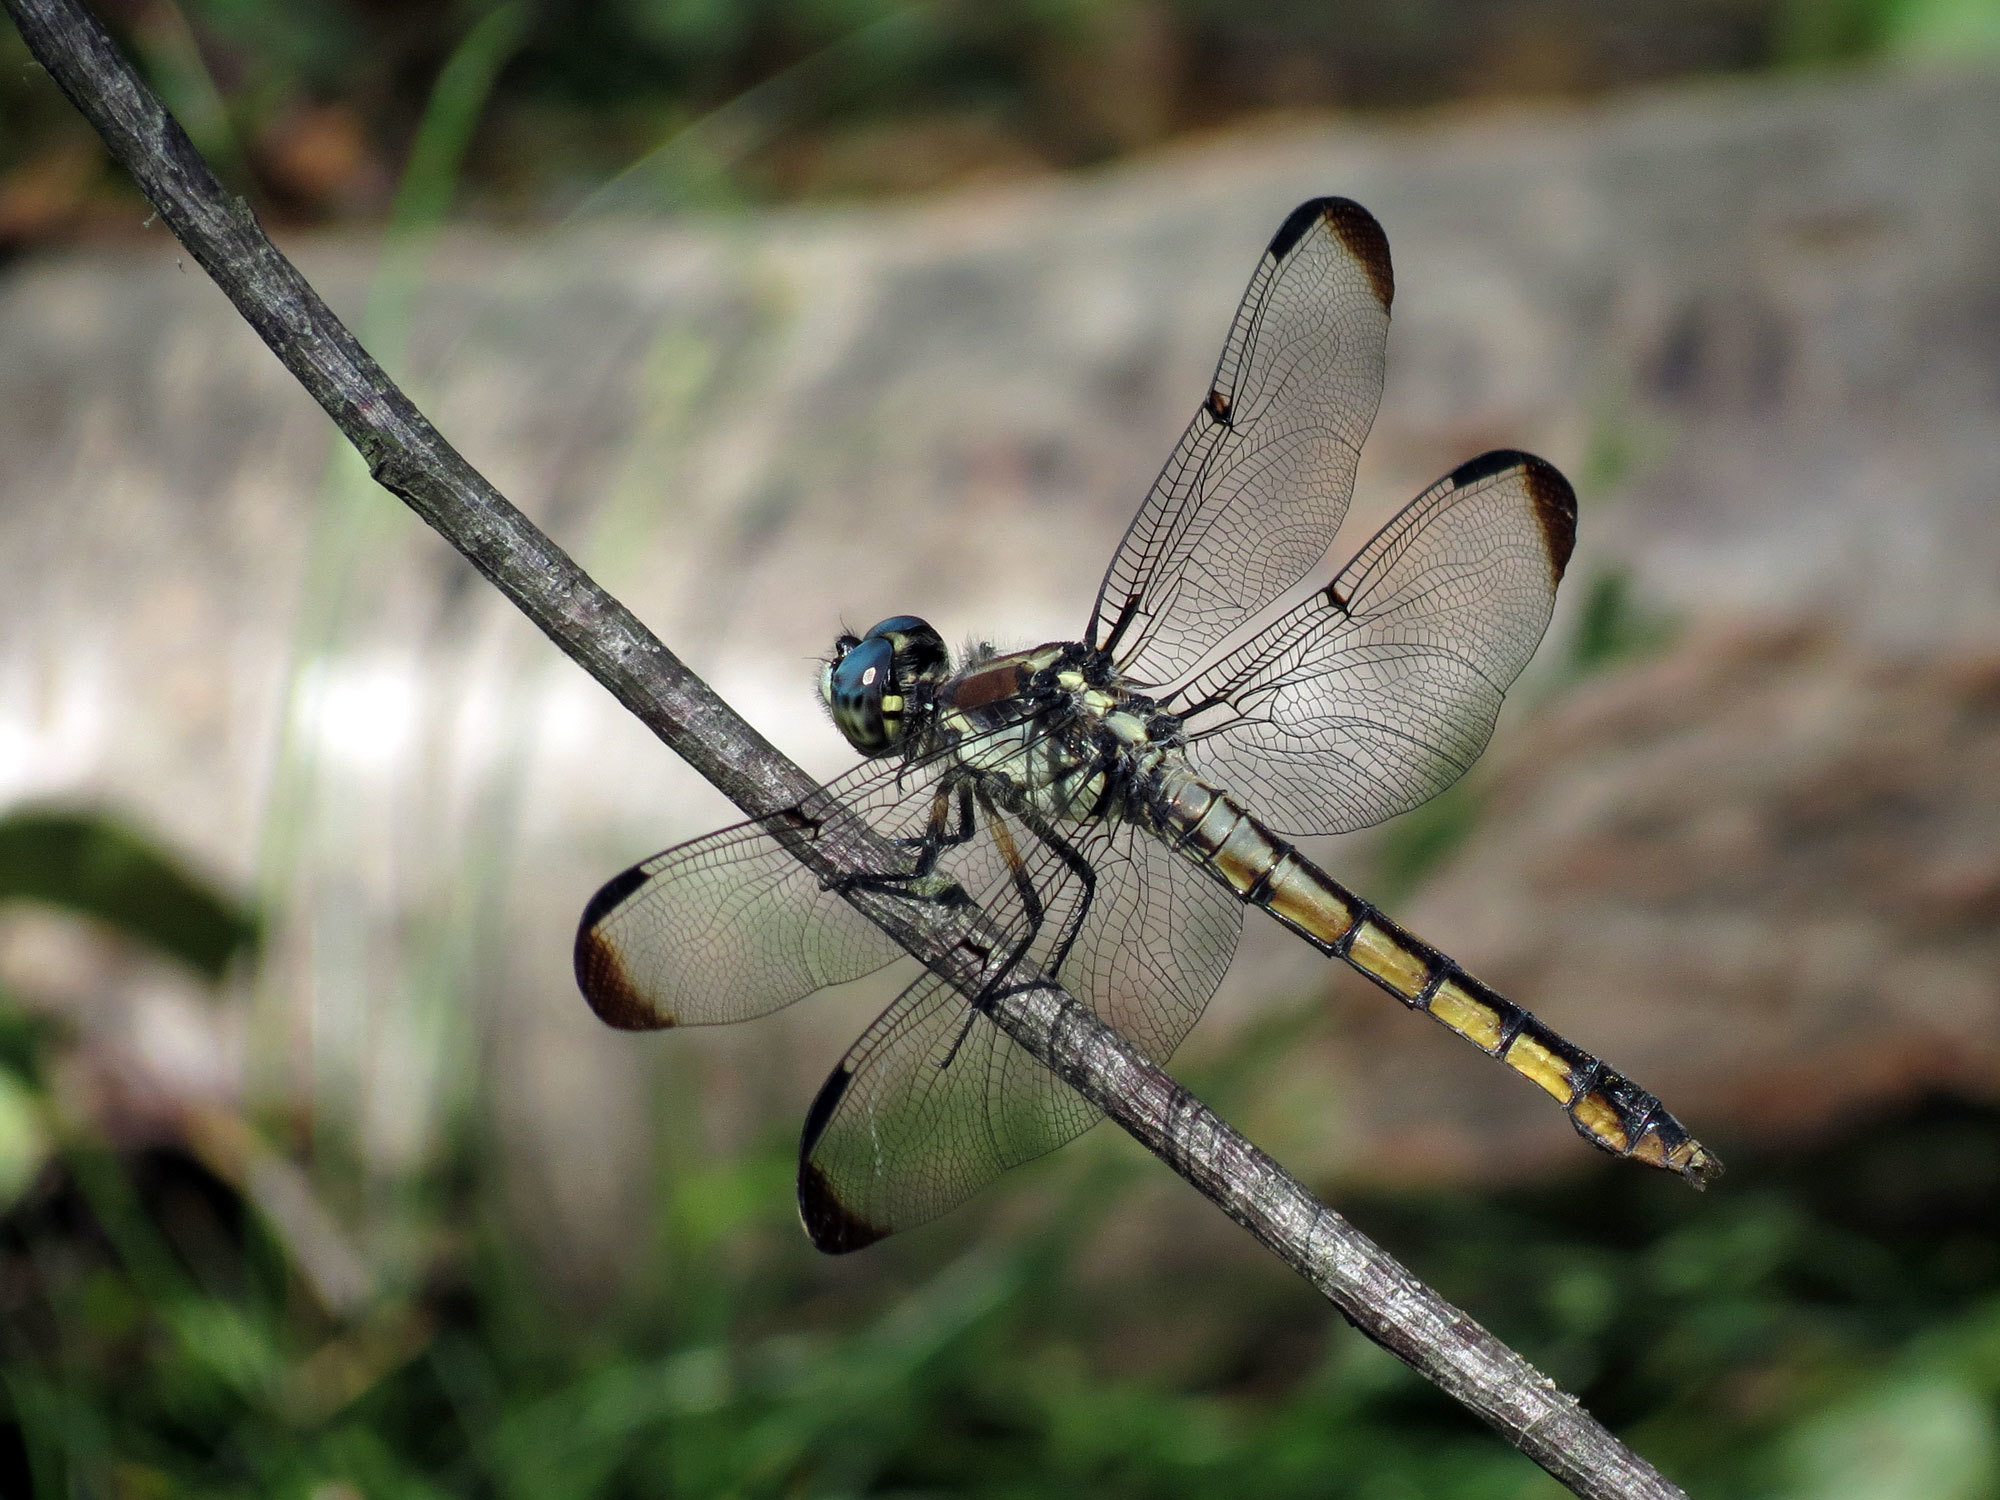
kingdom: Animalia
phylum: Arthropoda
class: Insecta
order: Odonata
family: Libellulidae
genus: Libellula
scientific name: Libellula vibrans
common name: Great blue skimmer
